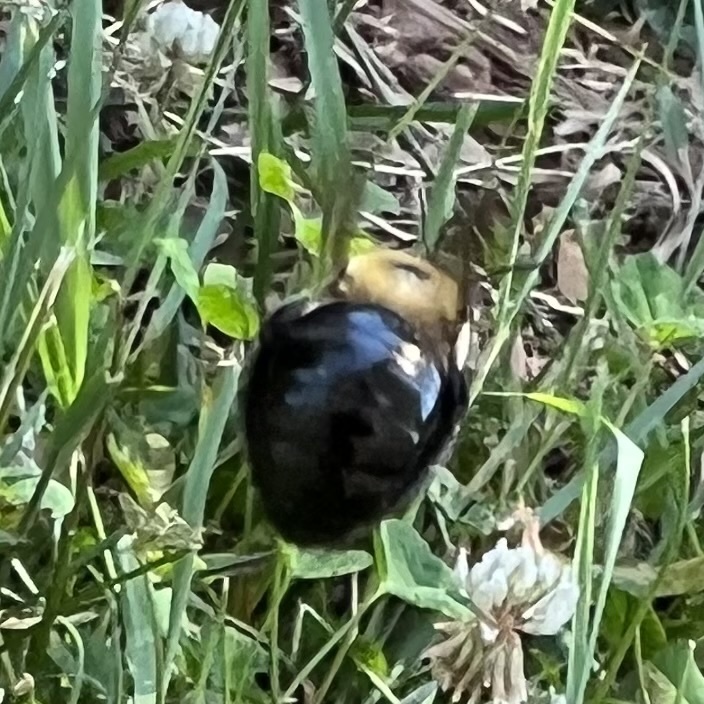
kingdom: Animalia
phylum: Arthropoda
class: Insecta
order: Hymenoptera
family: Apidae
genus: Xylocopa
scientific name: Xylocopa virginica
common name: Carpenter bee
